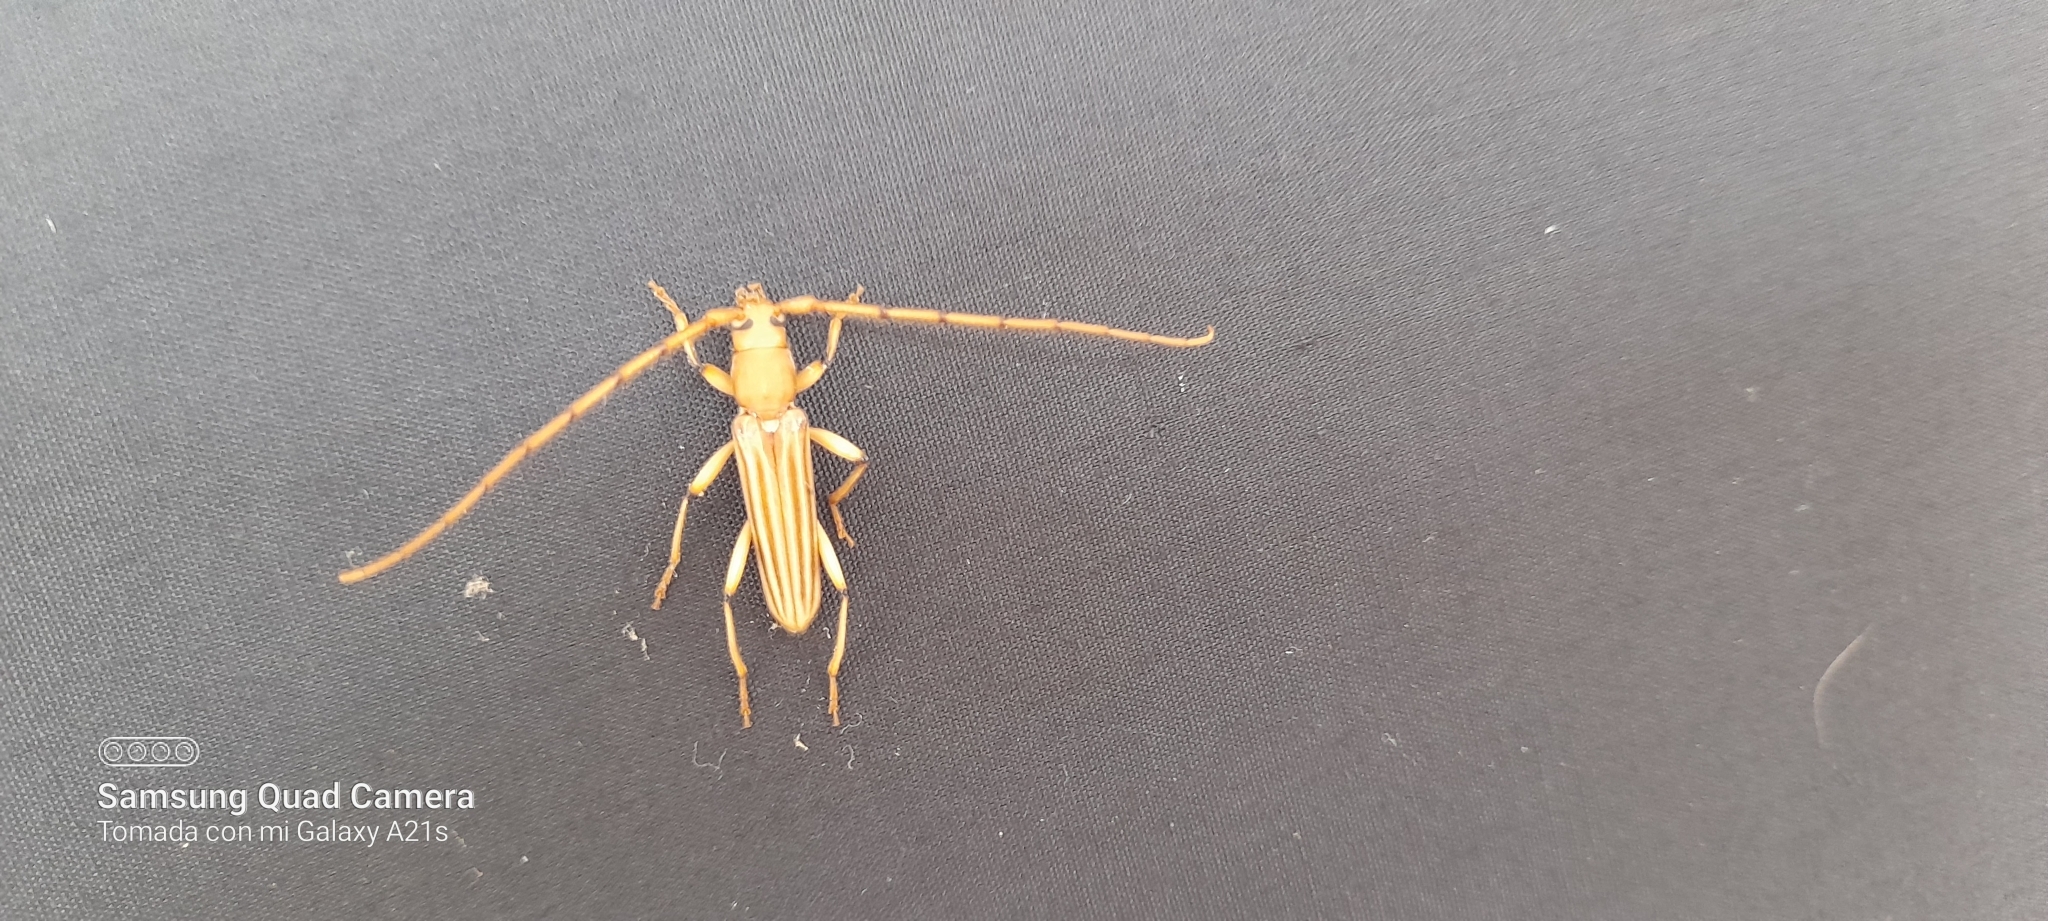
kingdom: Animalia
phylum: Arthropoda
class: Insecta
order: Coleoptera
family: Cerambycidae
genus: Malacopterus
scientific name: Malacopterus tenellus
